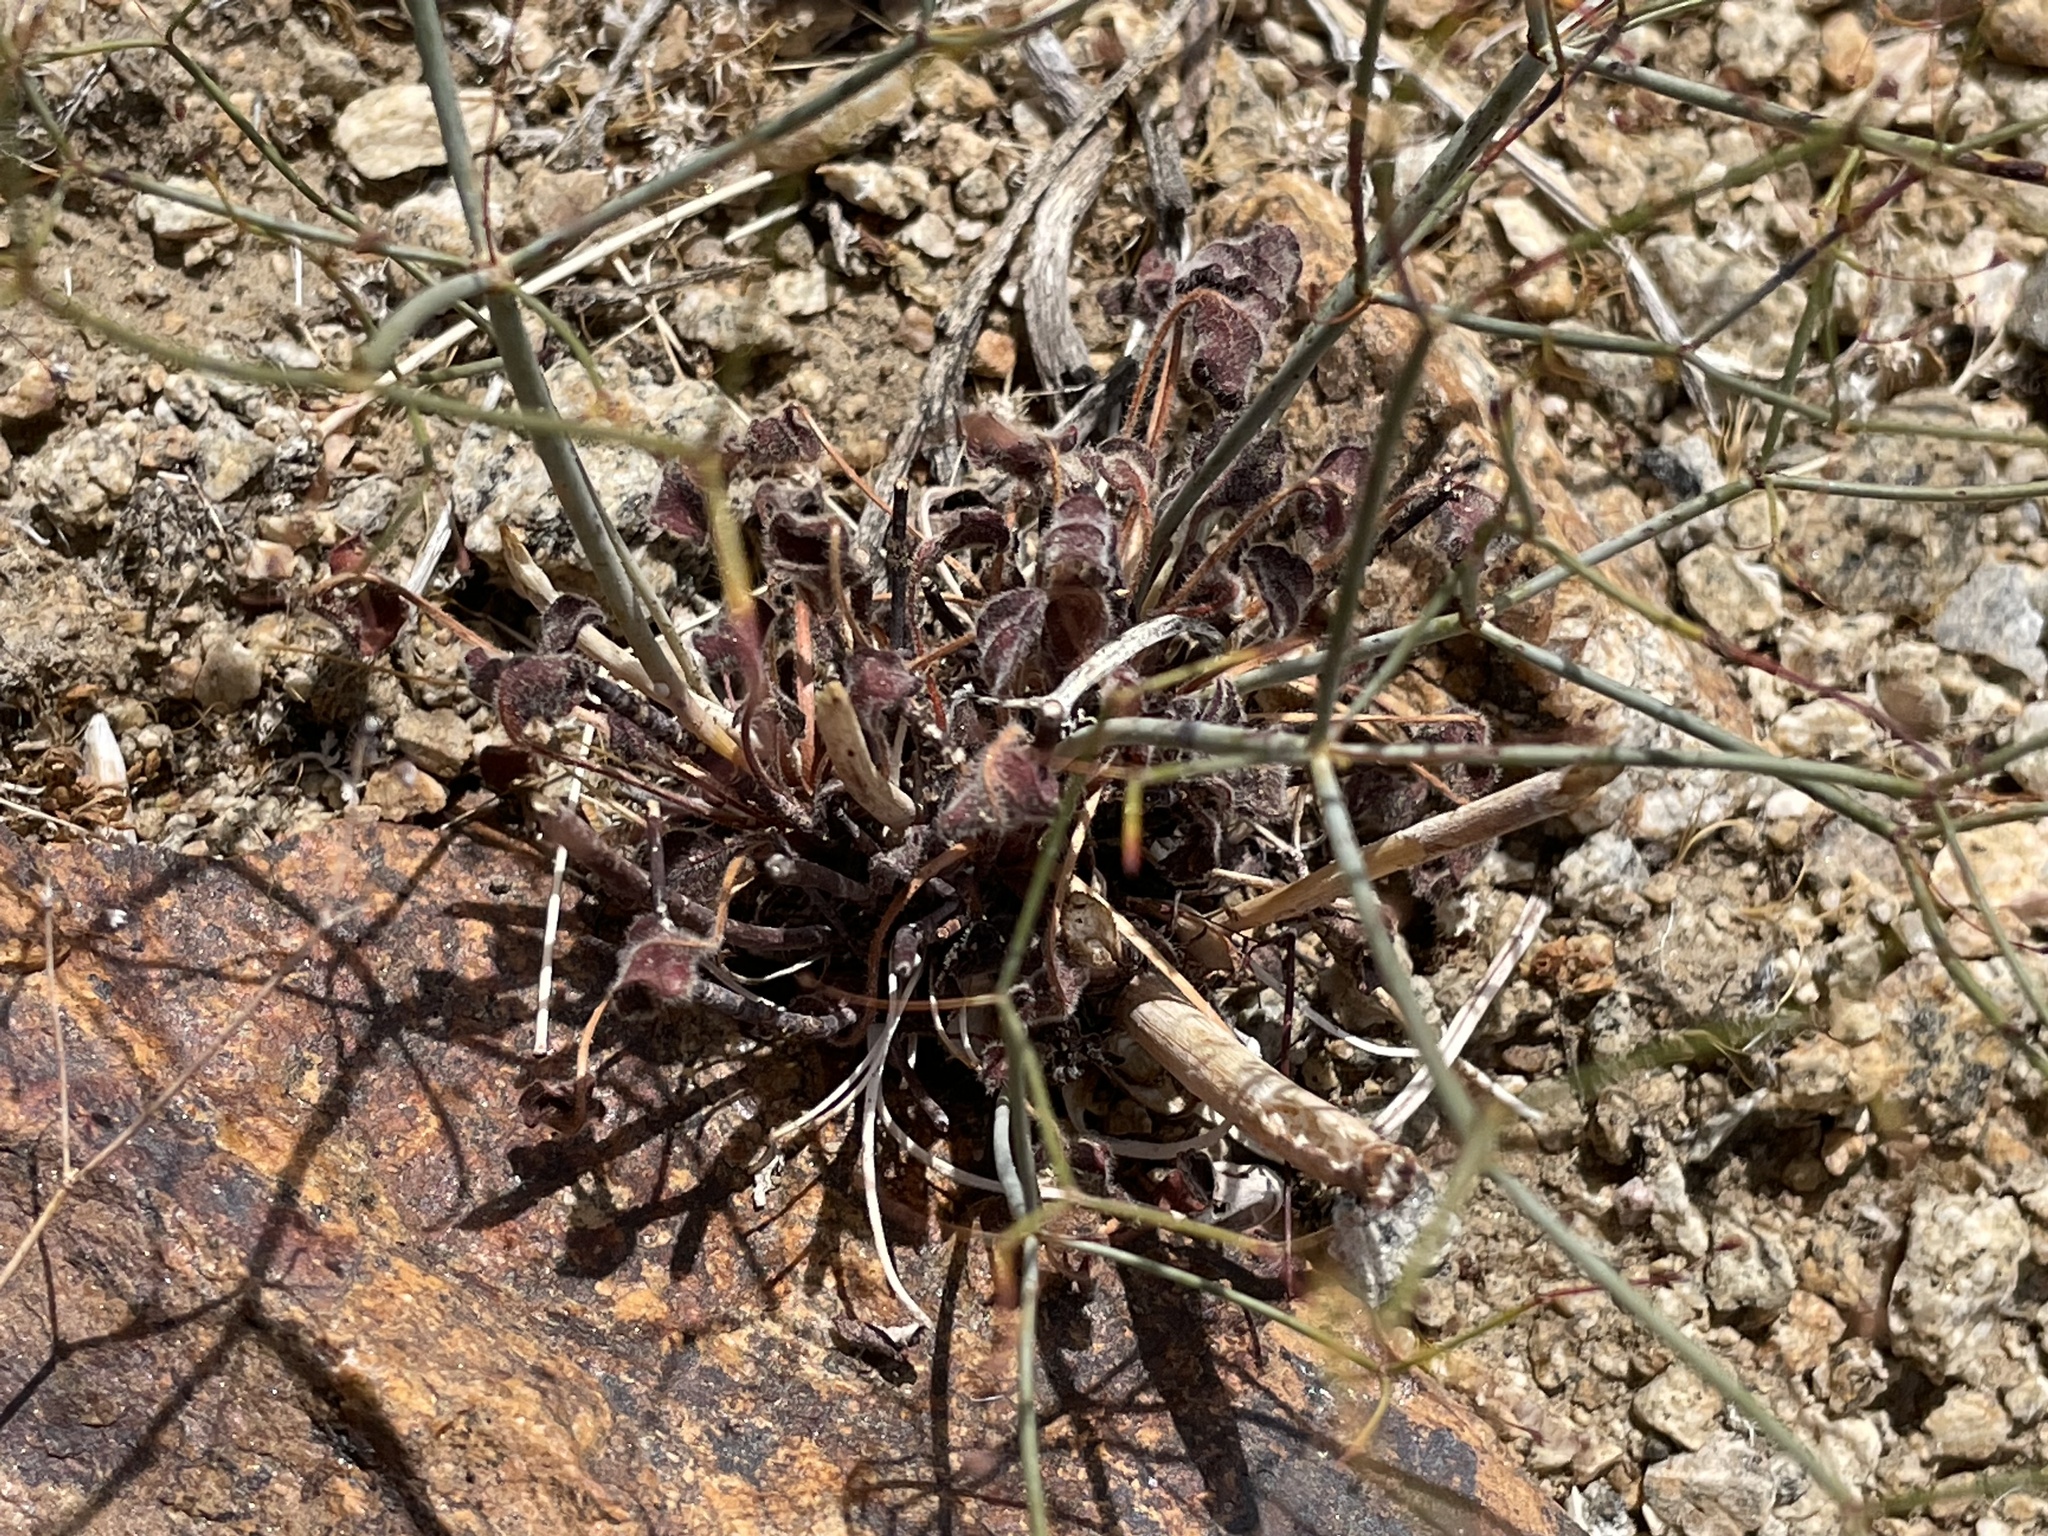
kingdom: Plantae
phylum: Tracheophyta
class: Magnoliopsida
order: Caryophyllales
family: Polygonaceae
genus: Eriogonum
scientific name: Eriogonum inflatum
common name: Desert trumpet
